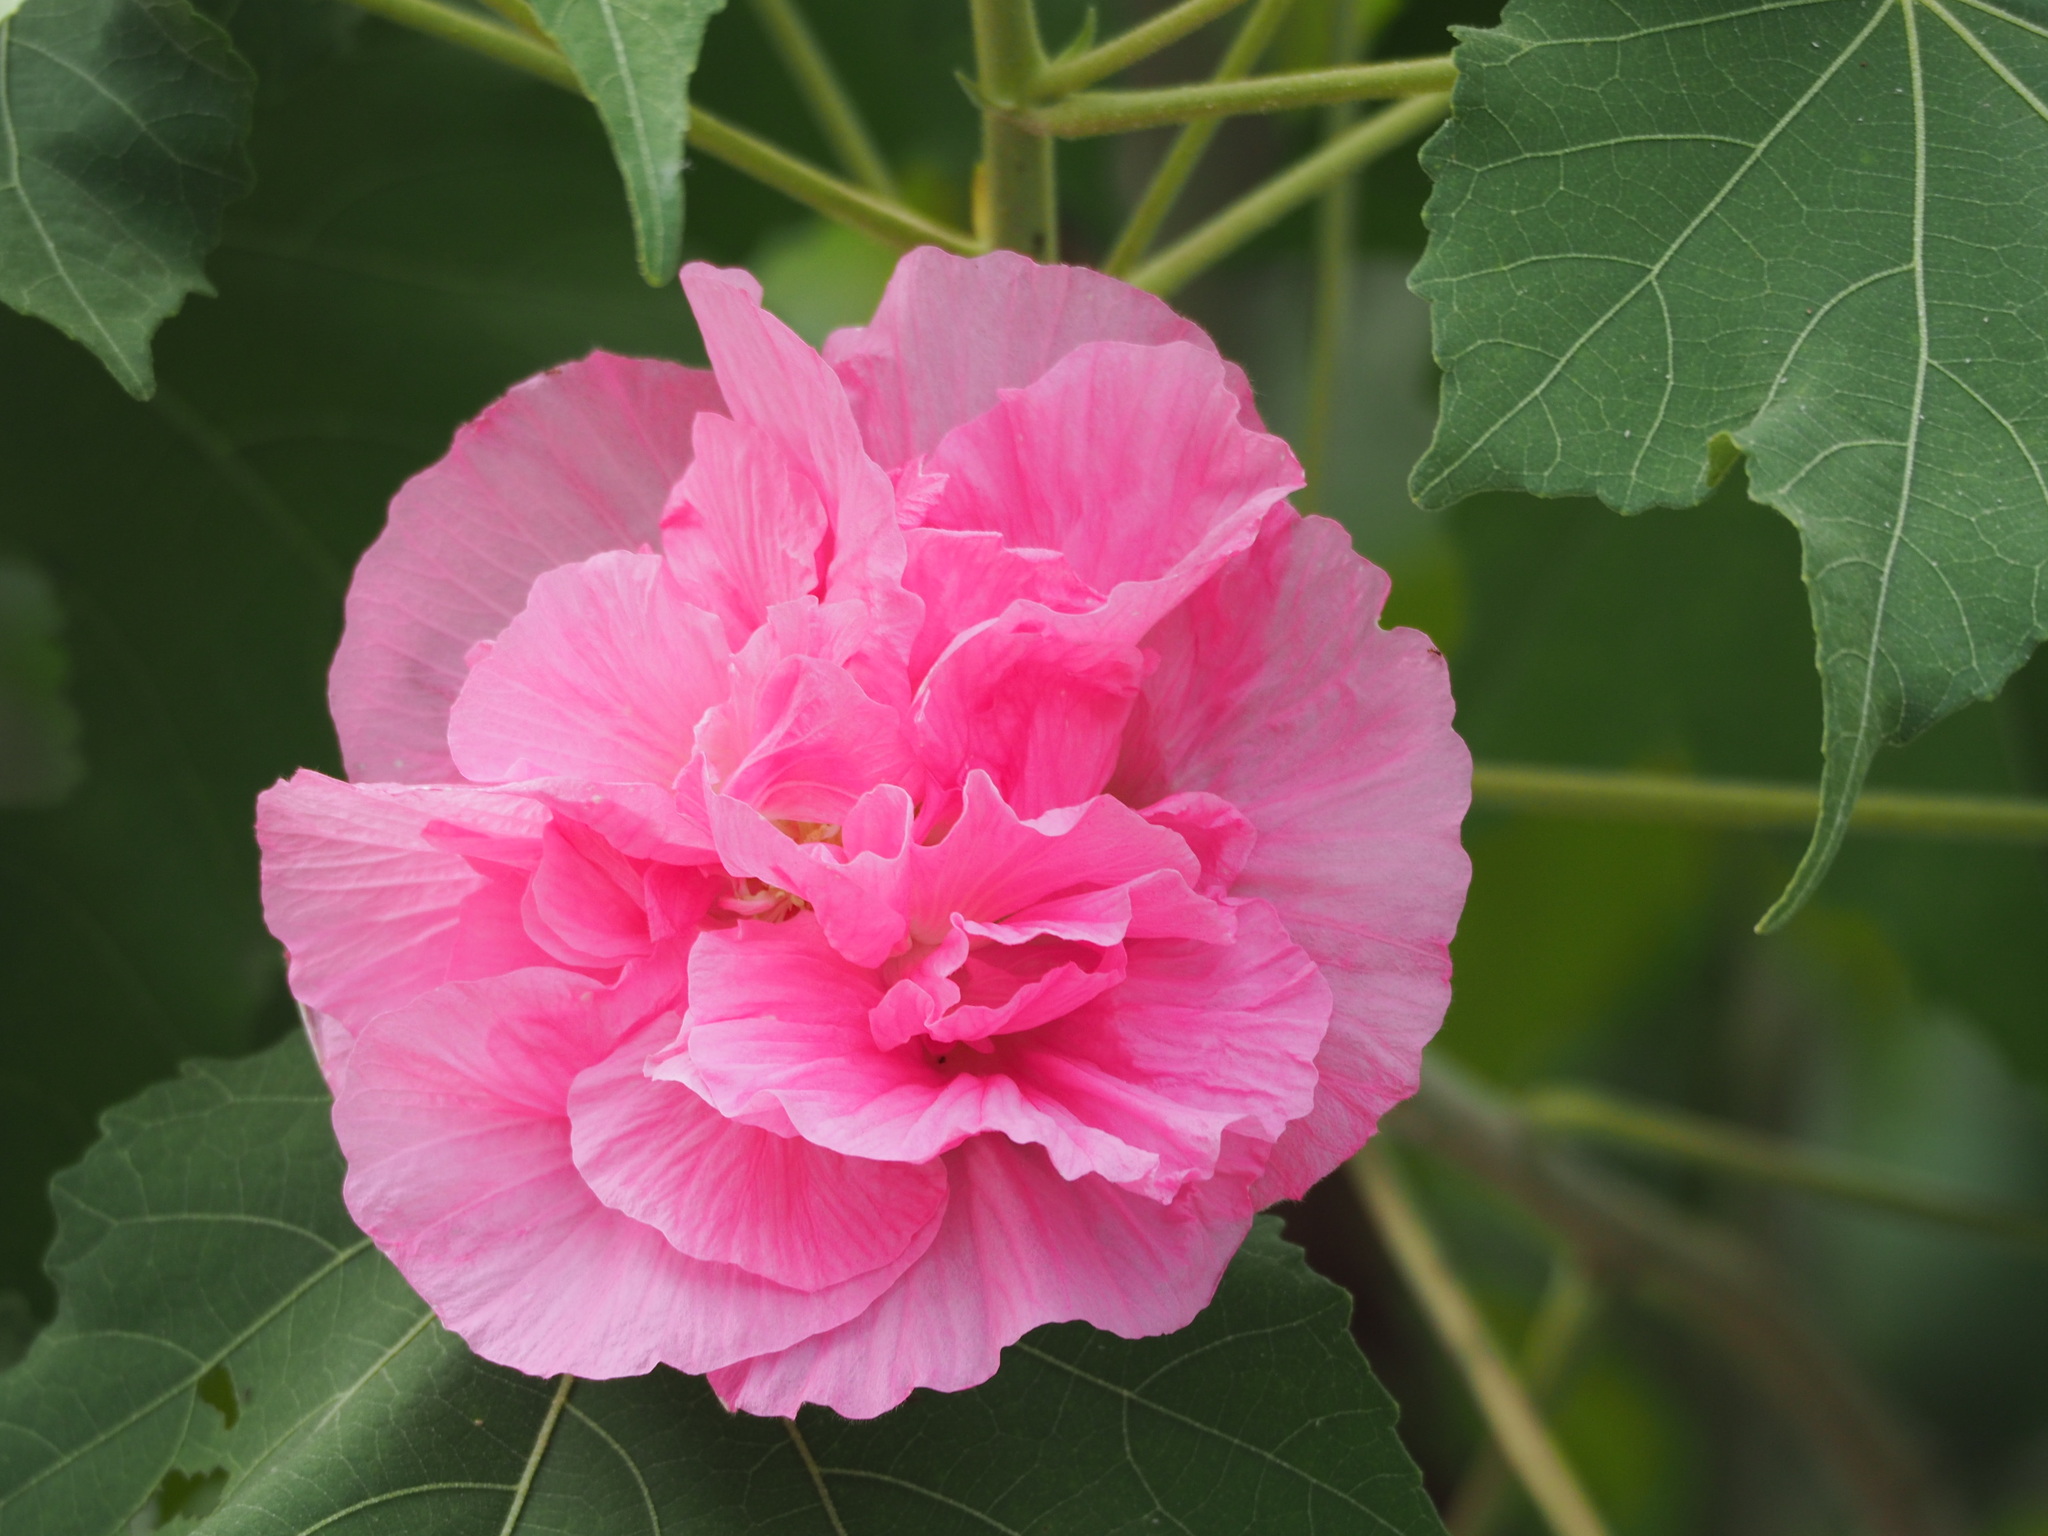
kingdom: Plantae
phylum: Tracheophyta
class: Magnoliopsida
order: Malvales
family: Malvaceae
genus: Hibiscus
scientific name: Hibiscus mutabilis
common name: Dixie rosemallow
